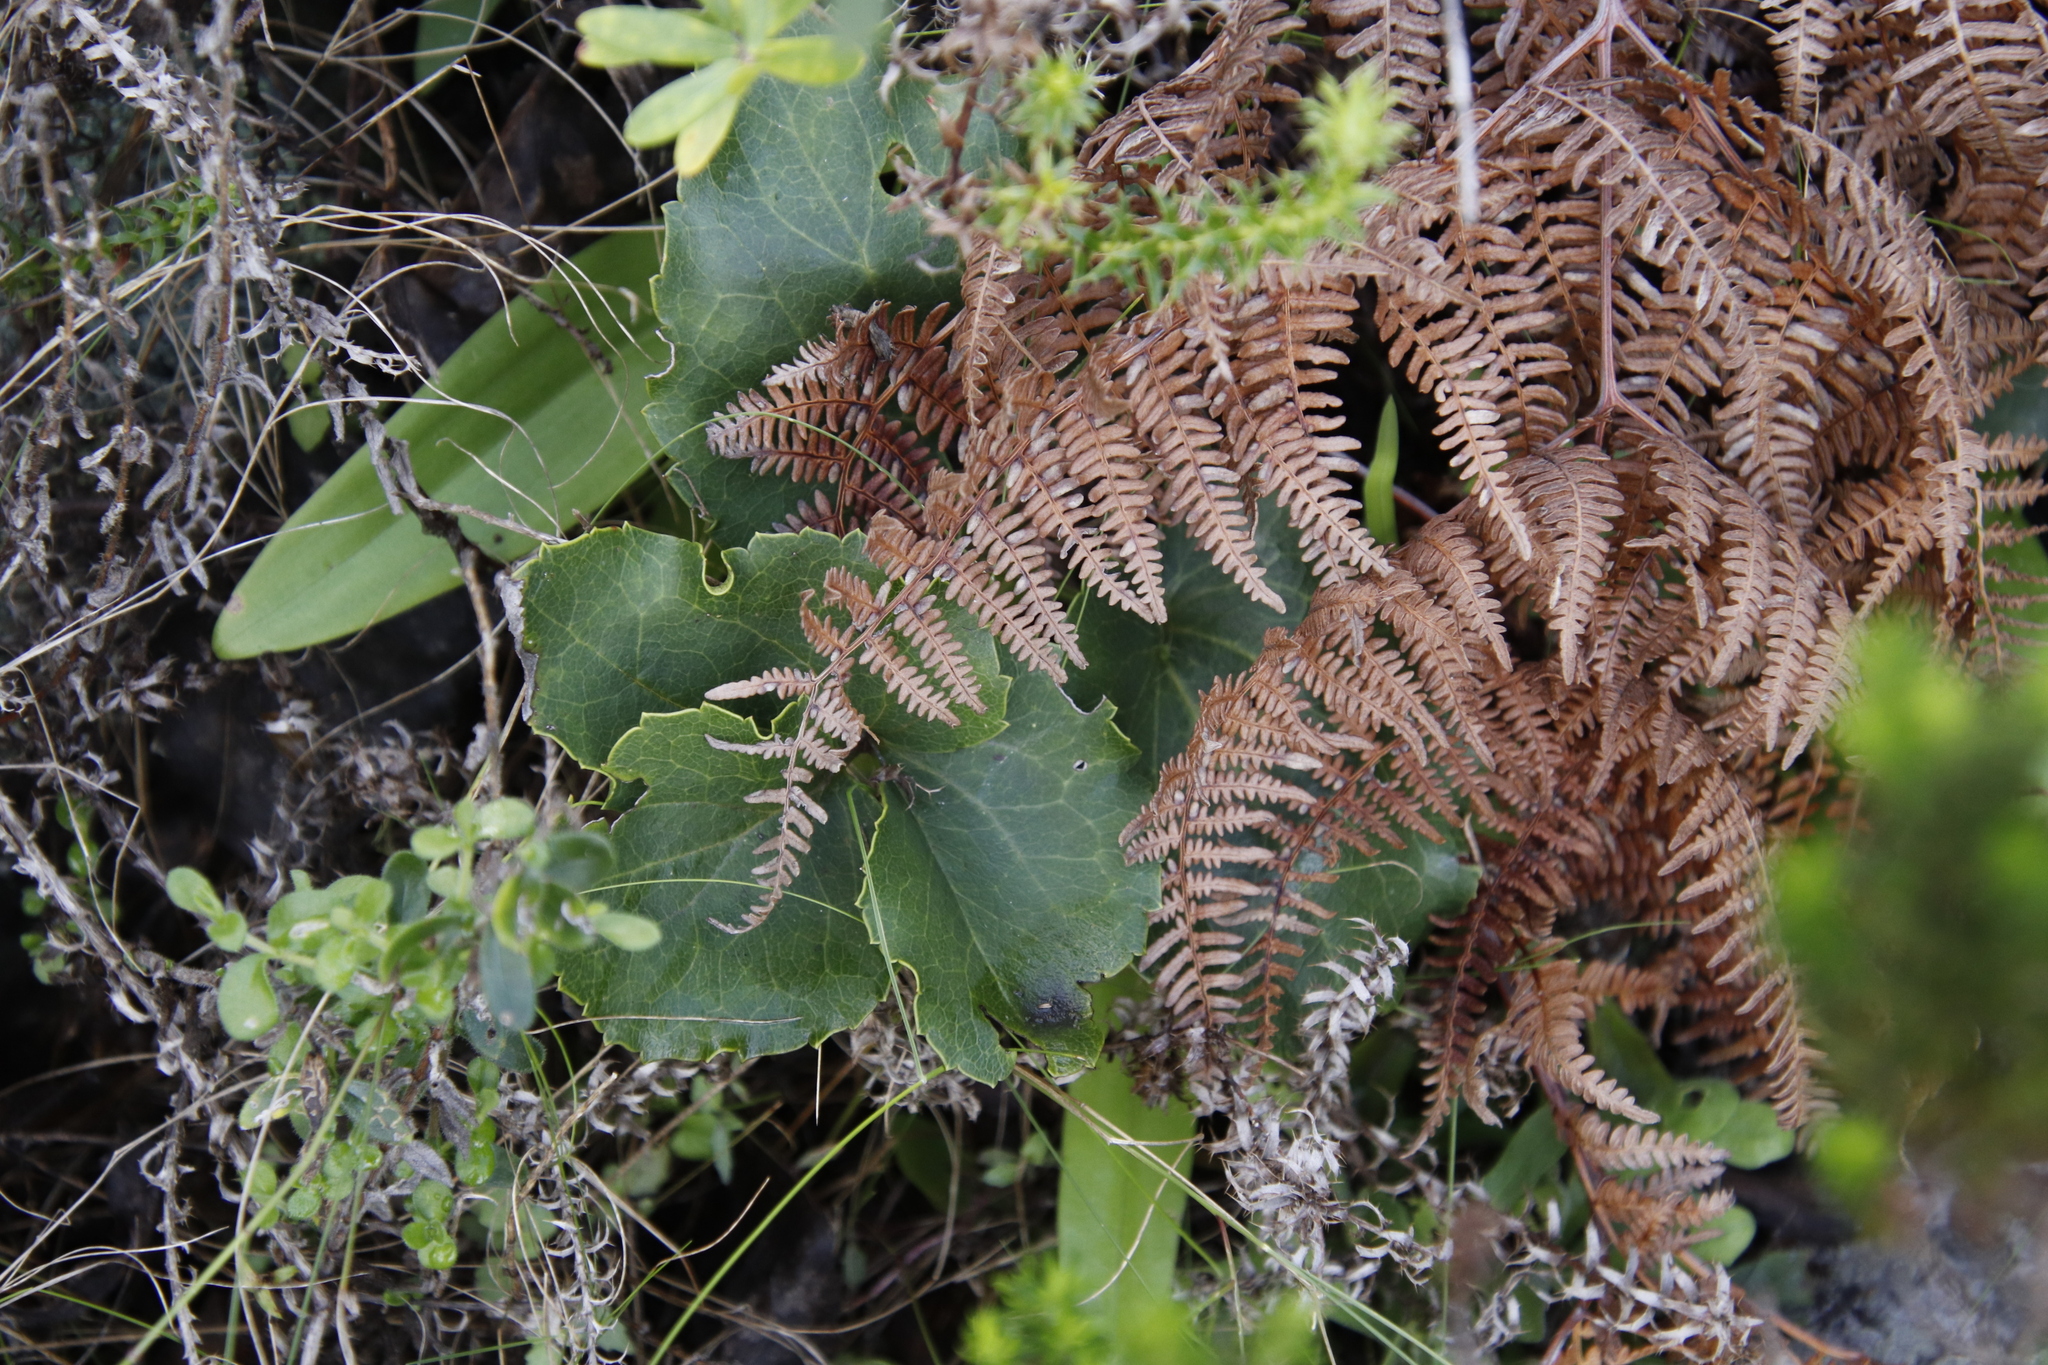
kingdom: Plantae
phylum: Tracheophyta
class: Magnoliopsida
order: Ranunculales
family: Ranunculaceae
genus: Knowltonia
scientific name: Knowltonia vesicatoria
